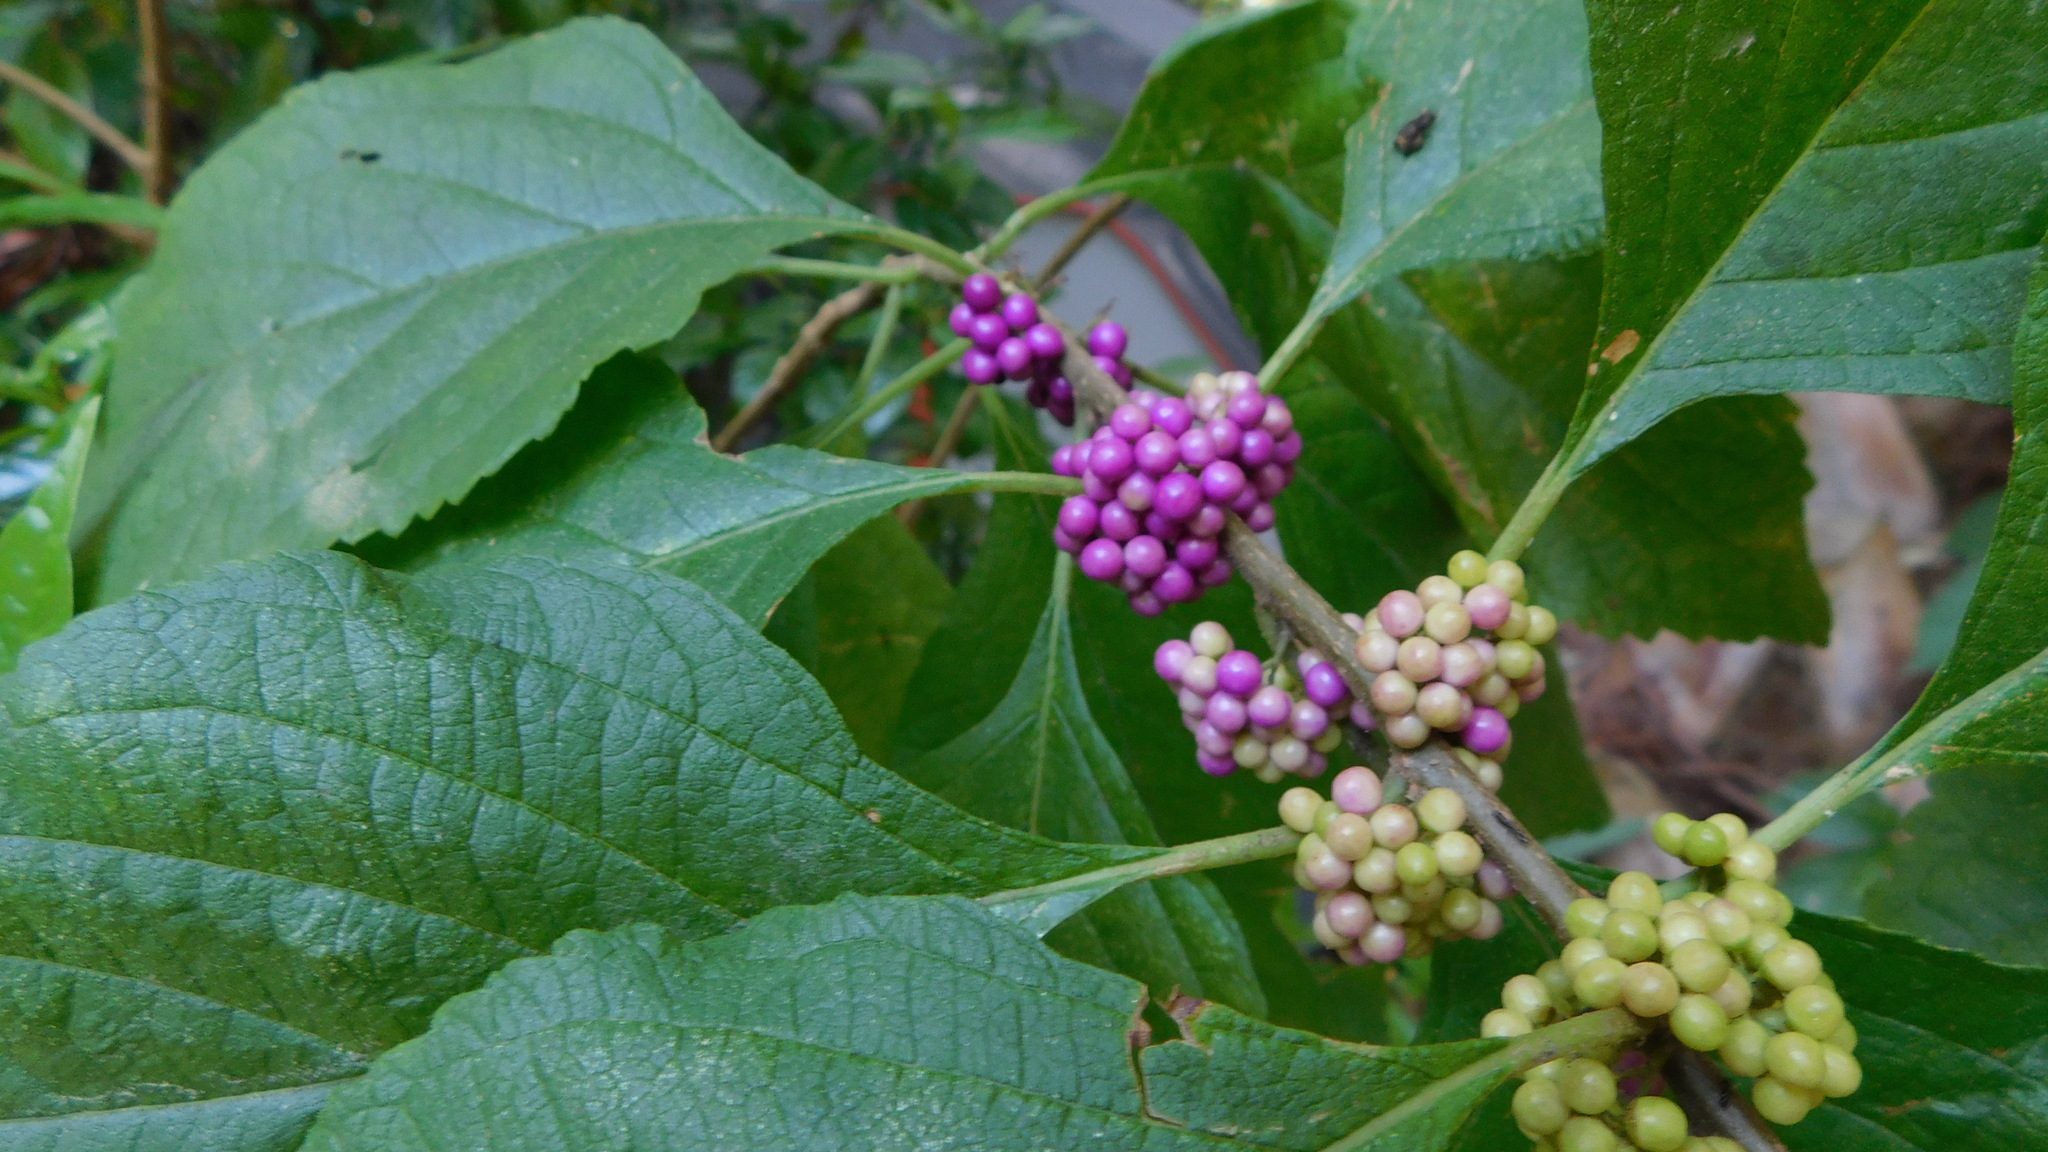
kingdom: Plantae
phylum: Tracheophyta
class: Magnoliopsida
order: Lamiales
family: Lamiaceae
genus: Callicarpa
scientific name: Callicarpa americana
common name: American beautyberry
